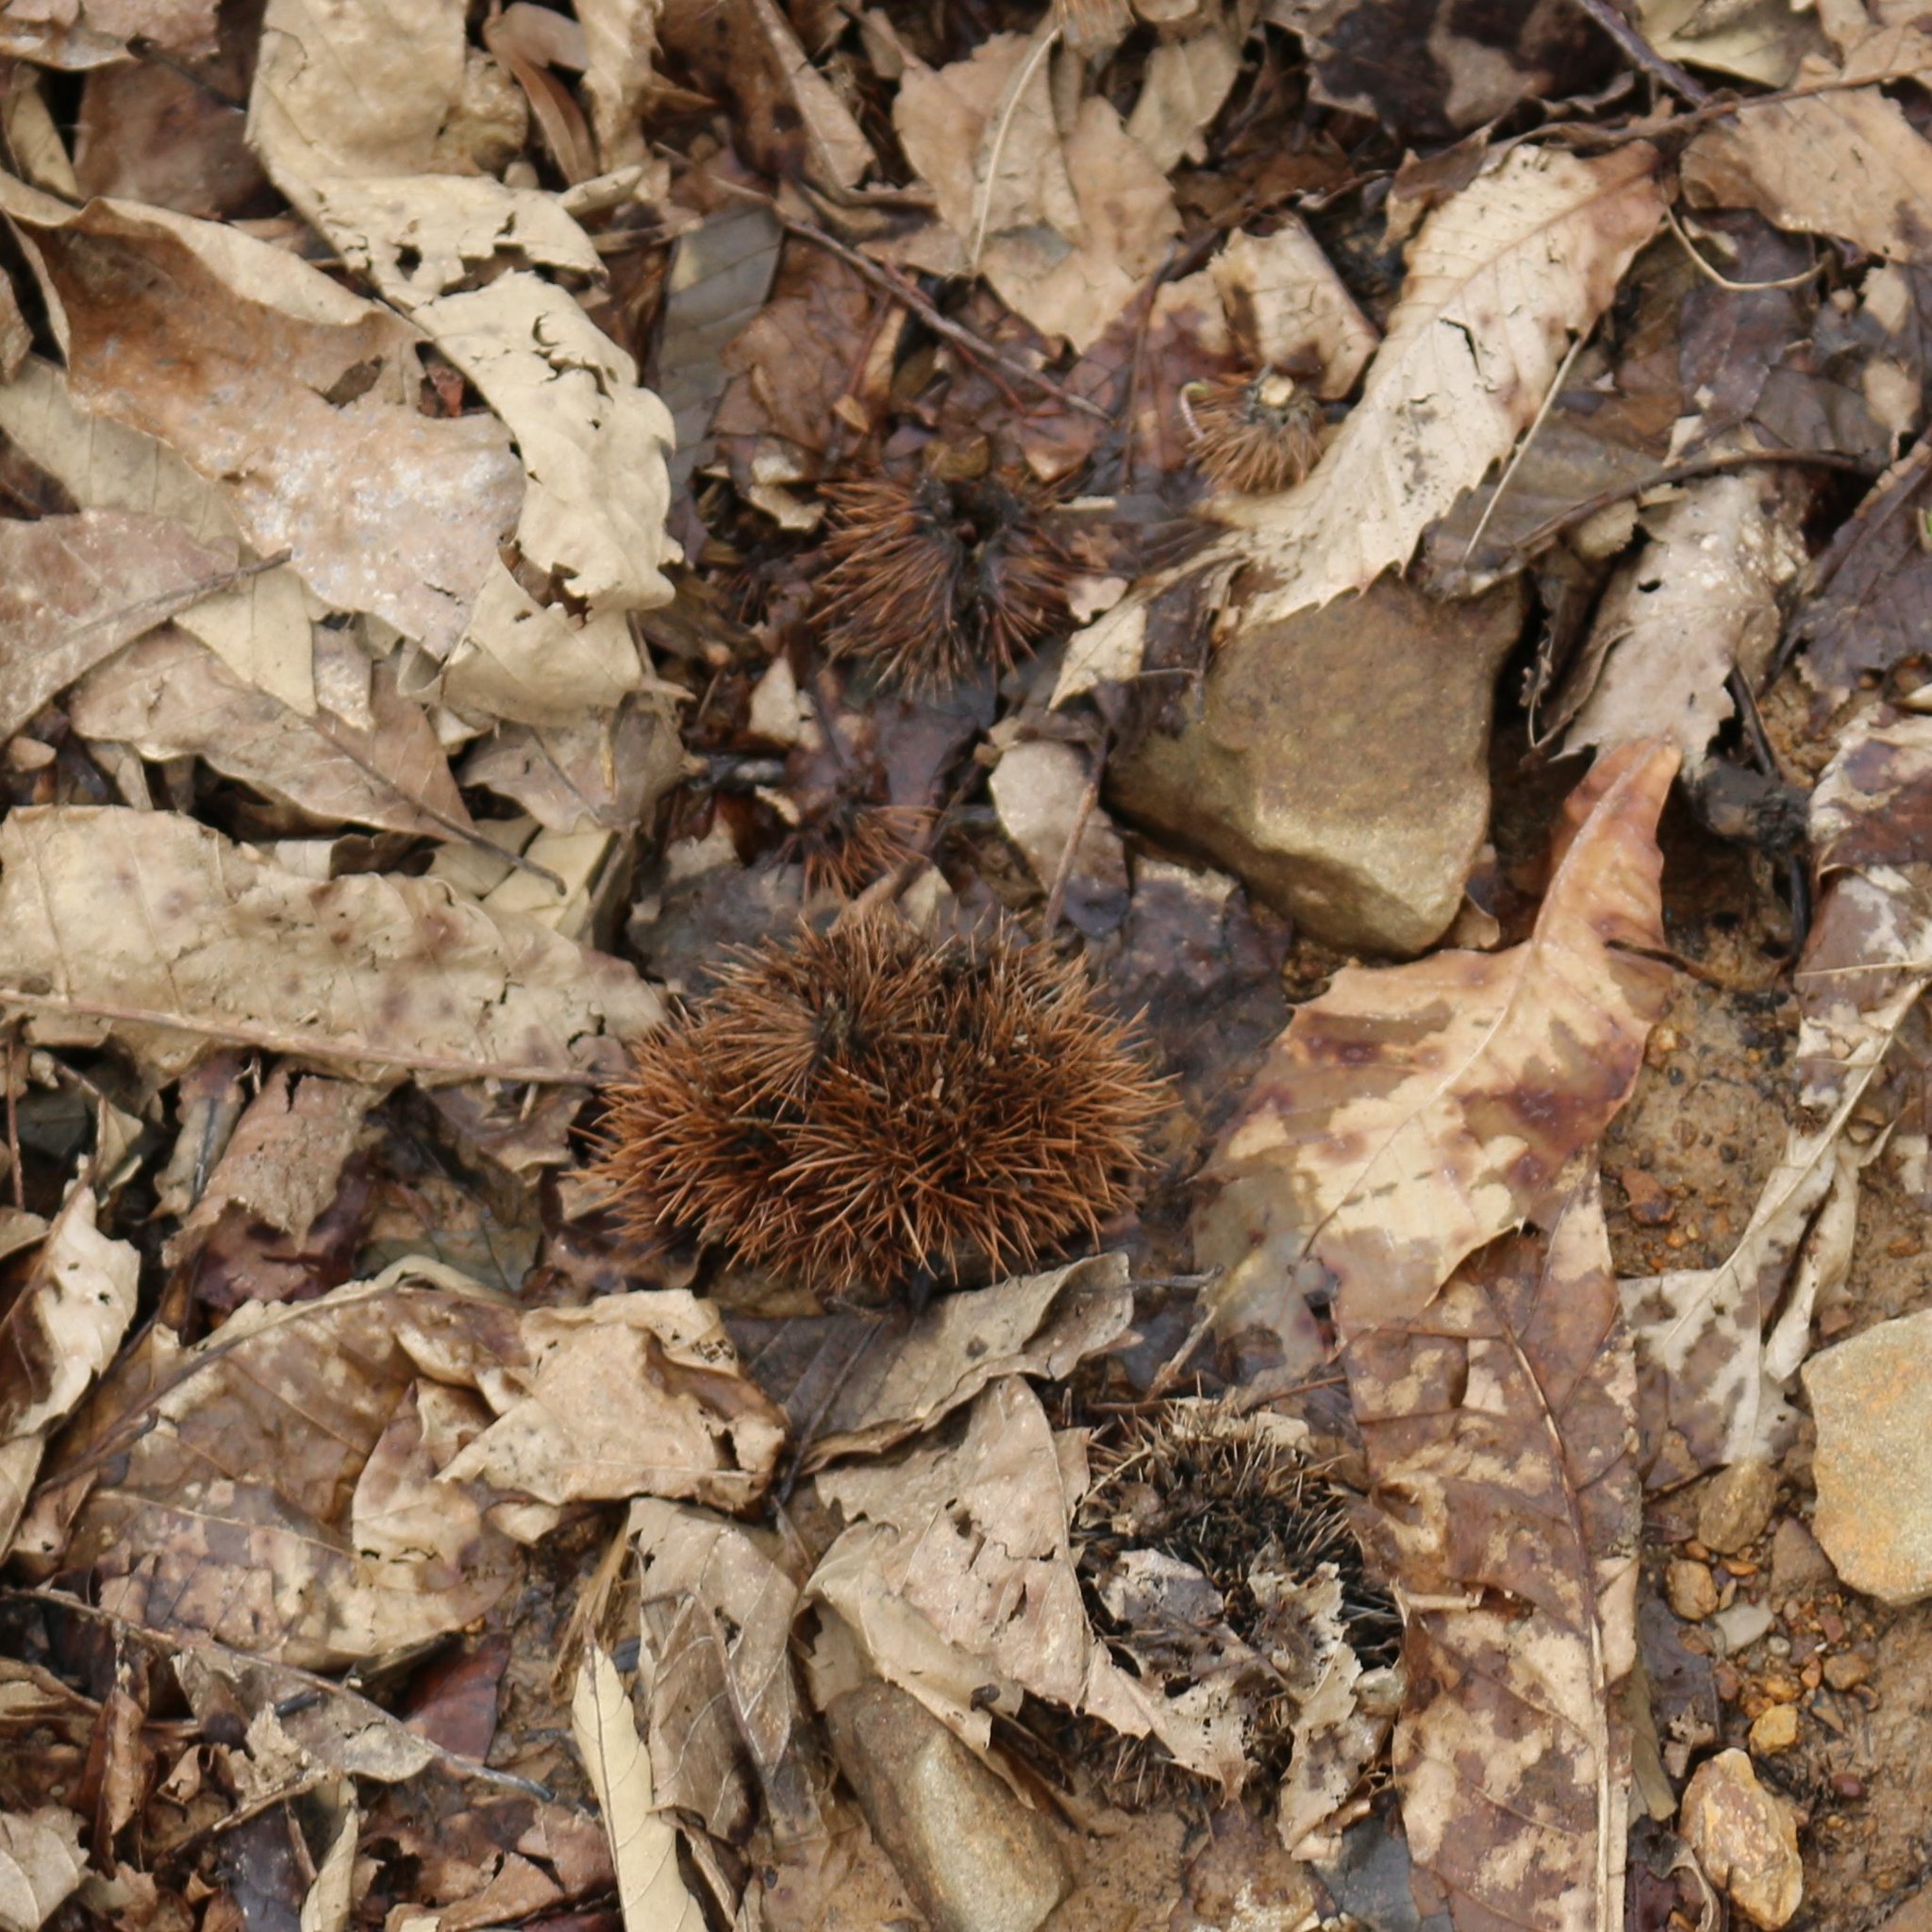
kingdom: Plantae
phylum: Tracheophyta
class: Magnoliopsida
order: Fagales
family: Fagaceae
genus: Castanea
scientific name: Castanea sativa
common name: Sweet chestnut
